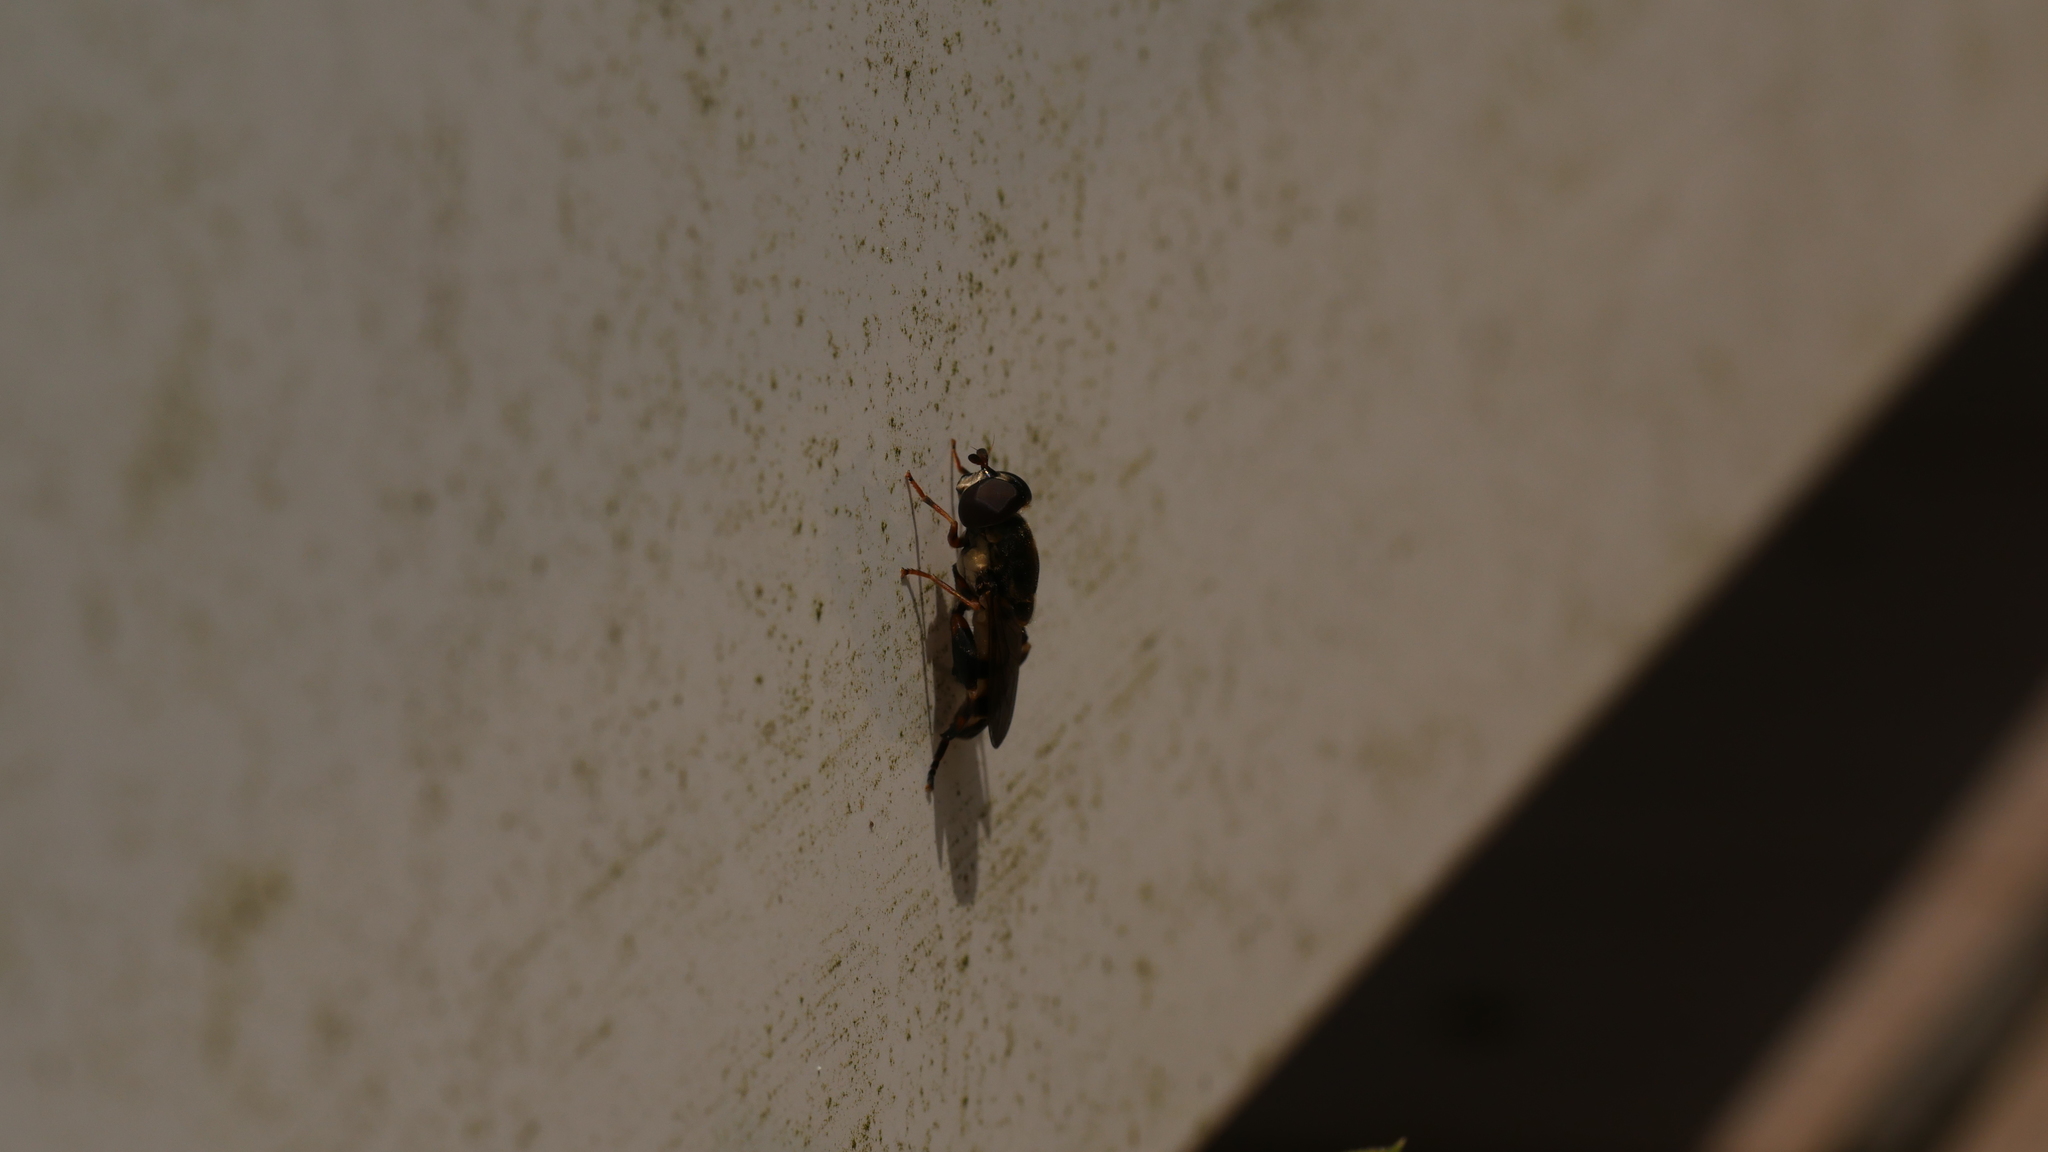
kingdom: Animalia
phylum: Arthropoda
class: Insecta
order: Diptera
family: Syrphidae
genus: Tropidia
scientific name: Tropidia albistylum
